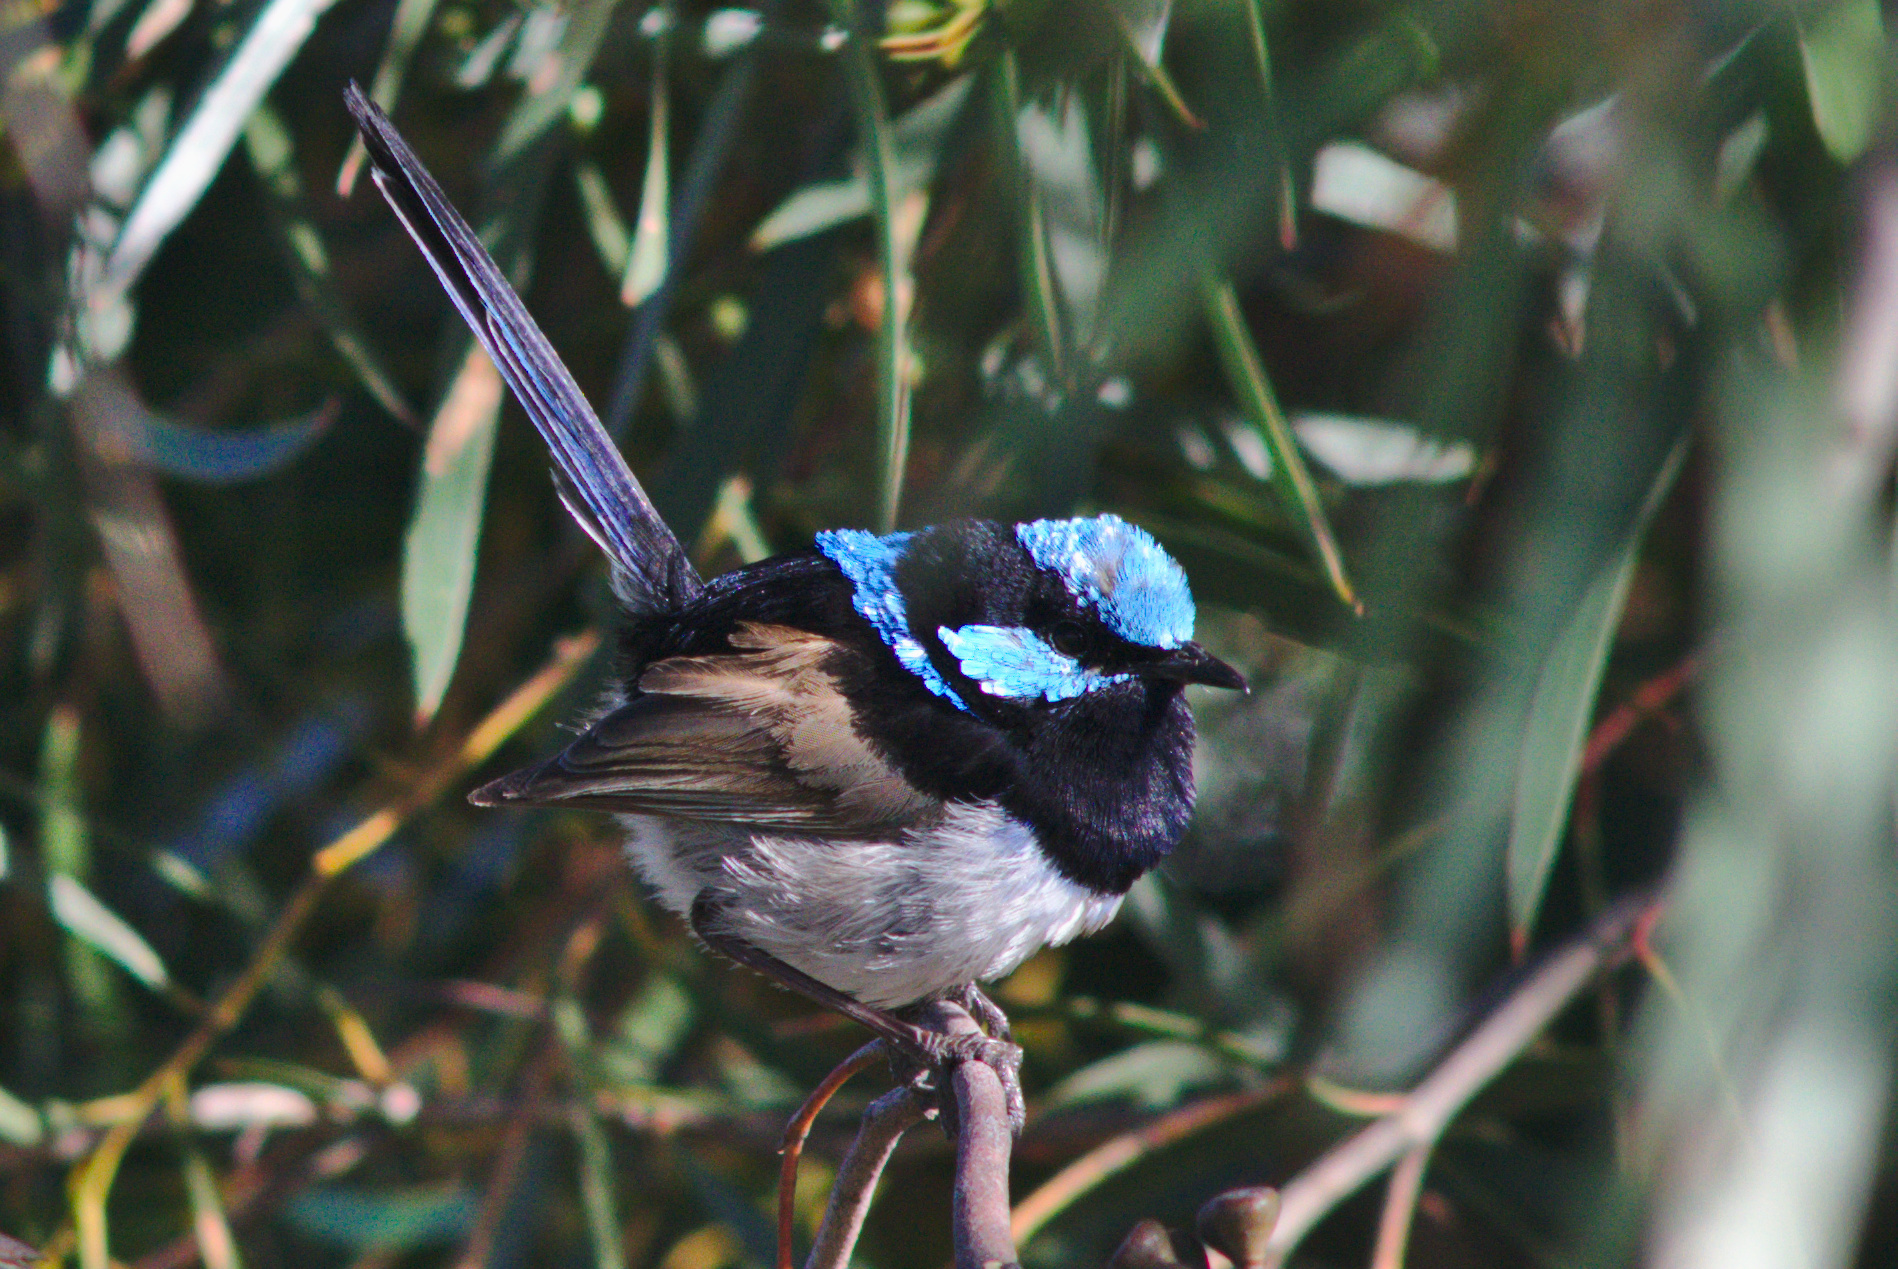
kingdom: Animalia
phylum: Chordata
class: Aves
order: Passeriformes
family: Maluridae
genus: Malurus
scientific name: Malurus cyaneus
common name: Superb fairywren
